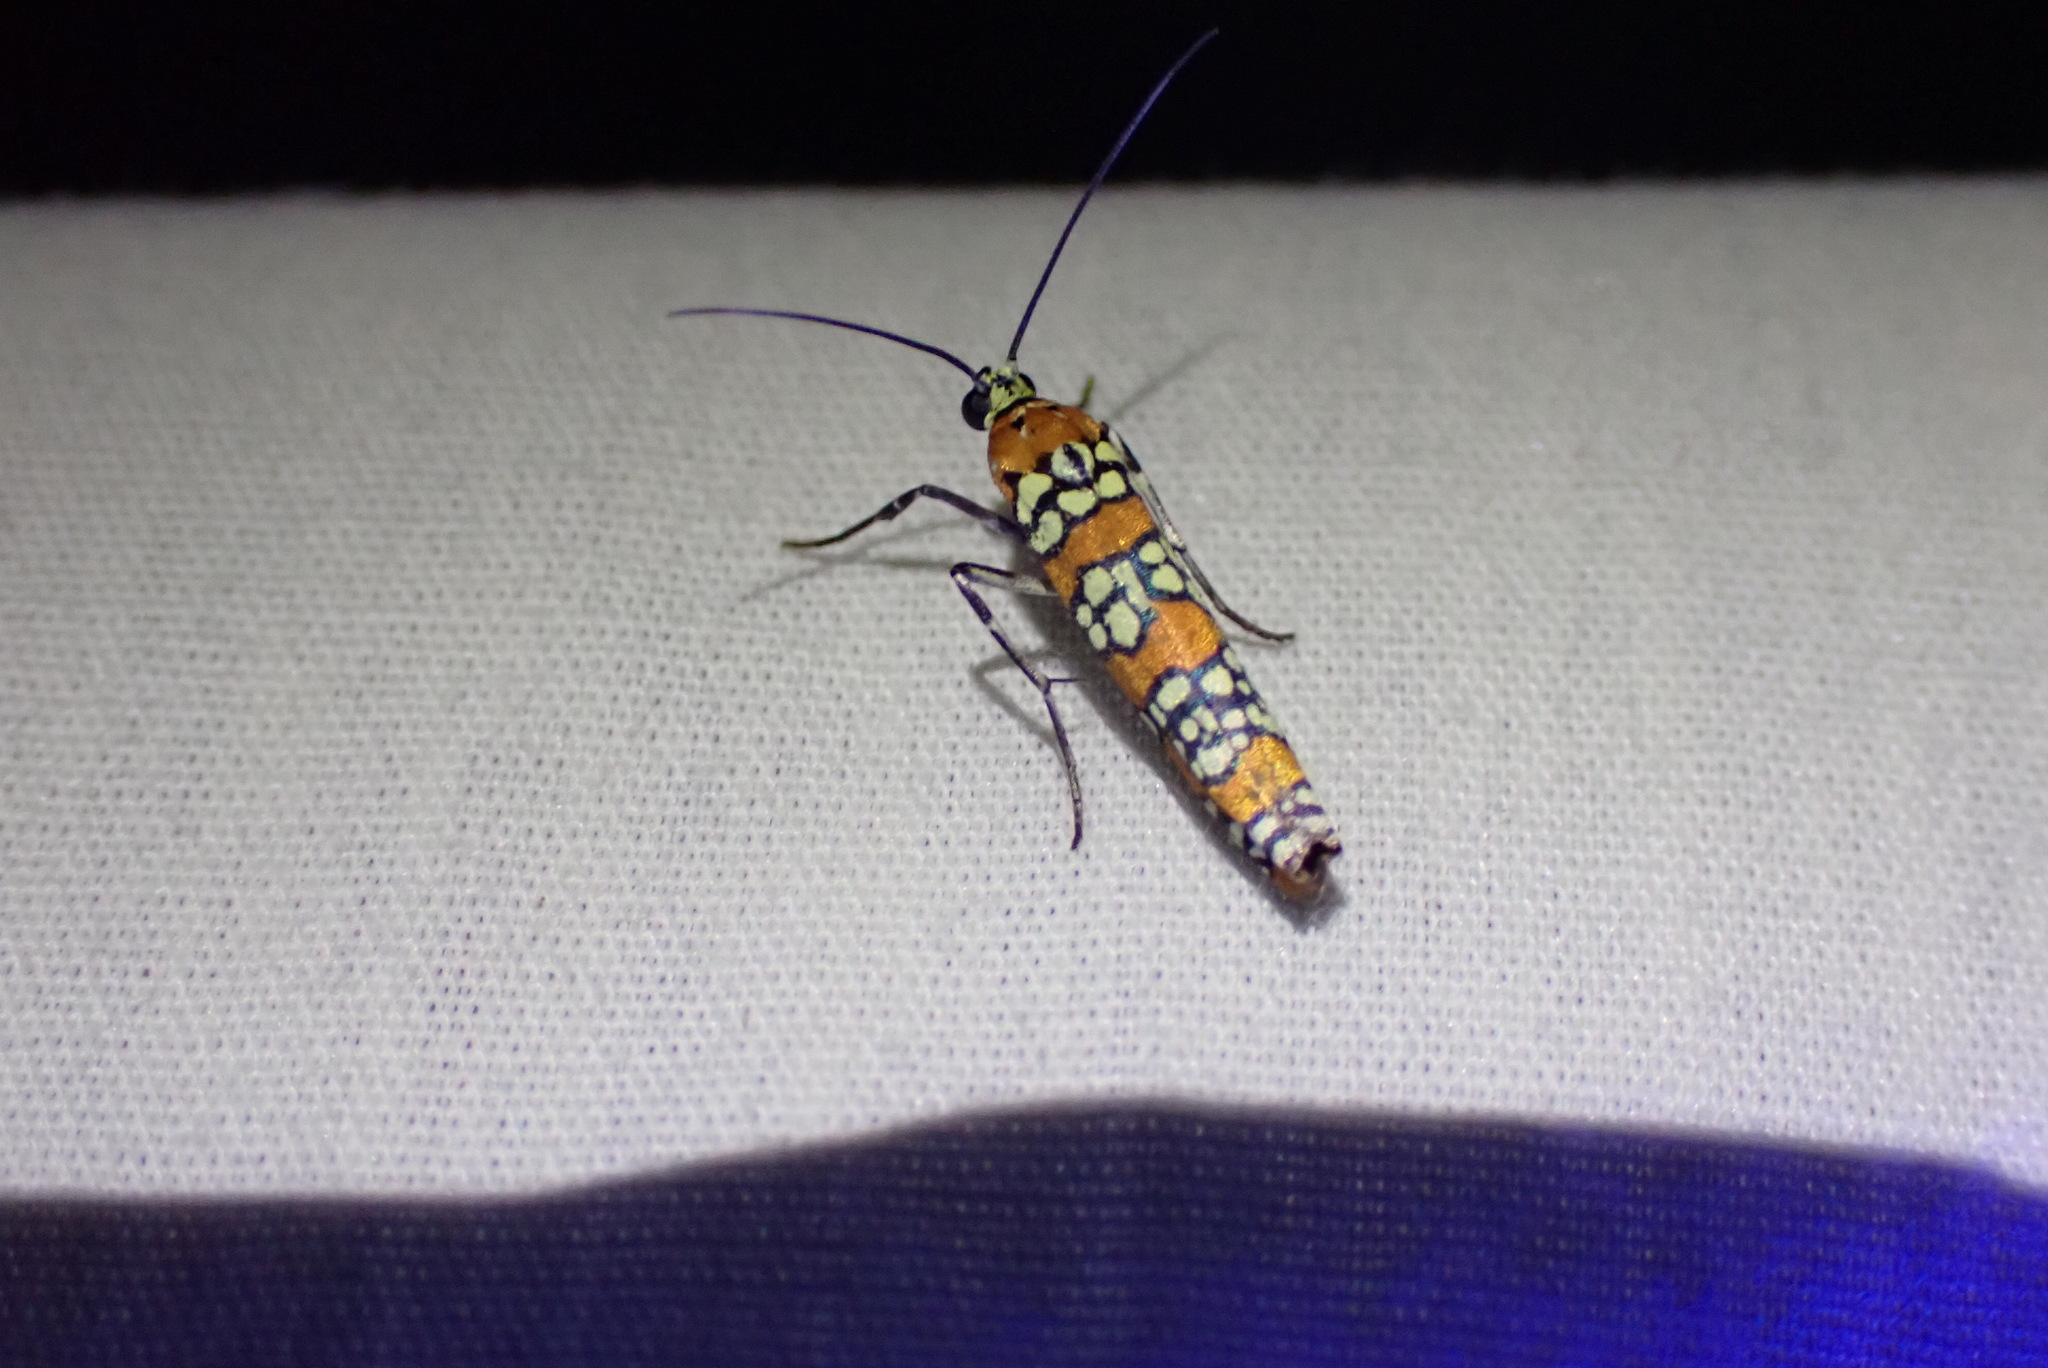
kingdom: Animalia
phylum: Arthropoda
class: Insecta
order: Lepidoptera
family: Attevidae
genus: Atteva
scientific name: Atteva punctella
